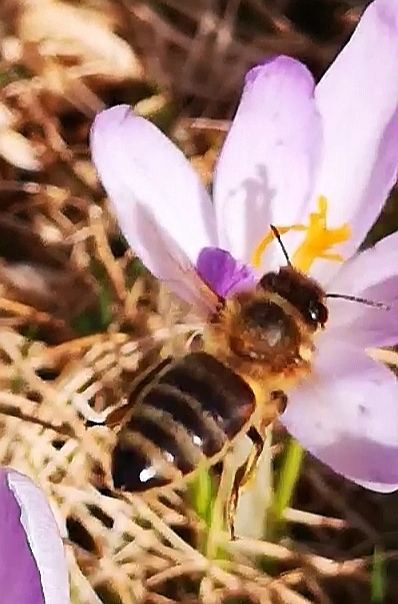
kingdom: Animalia
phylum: Arthropoda
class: Insecta
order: Hymenoptera
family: Apidae
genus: Apis
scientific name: Apis mellifera
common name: Honey bee
